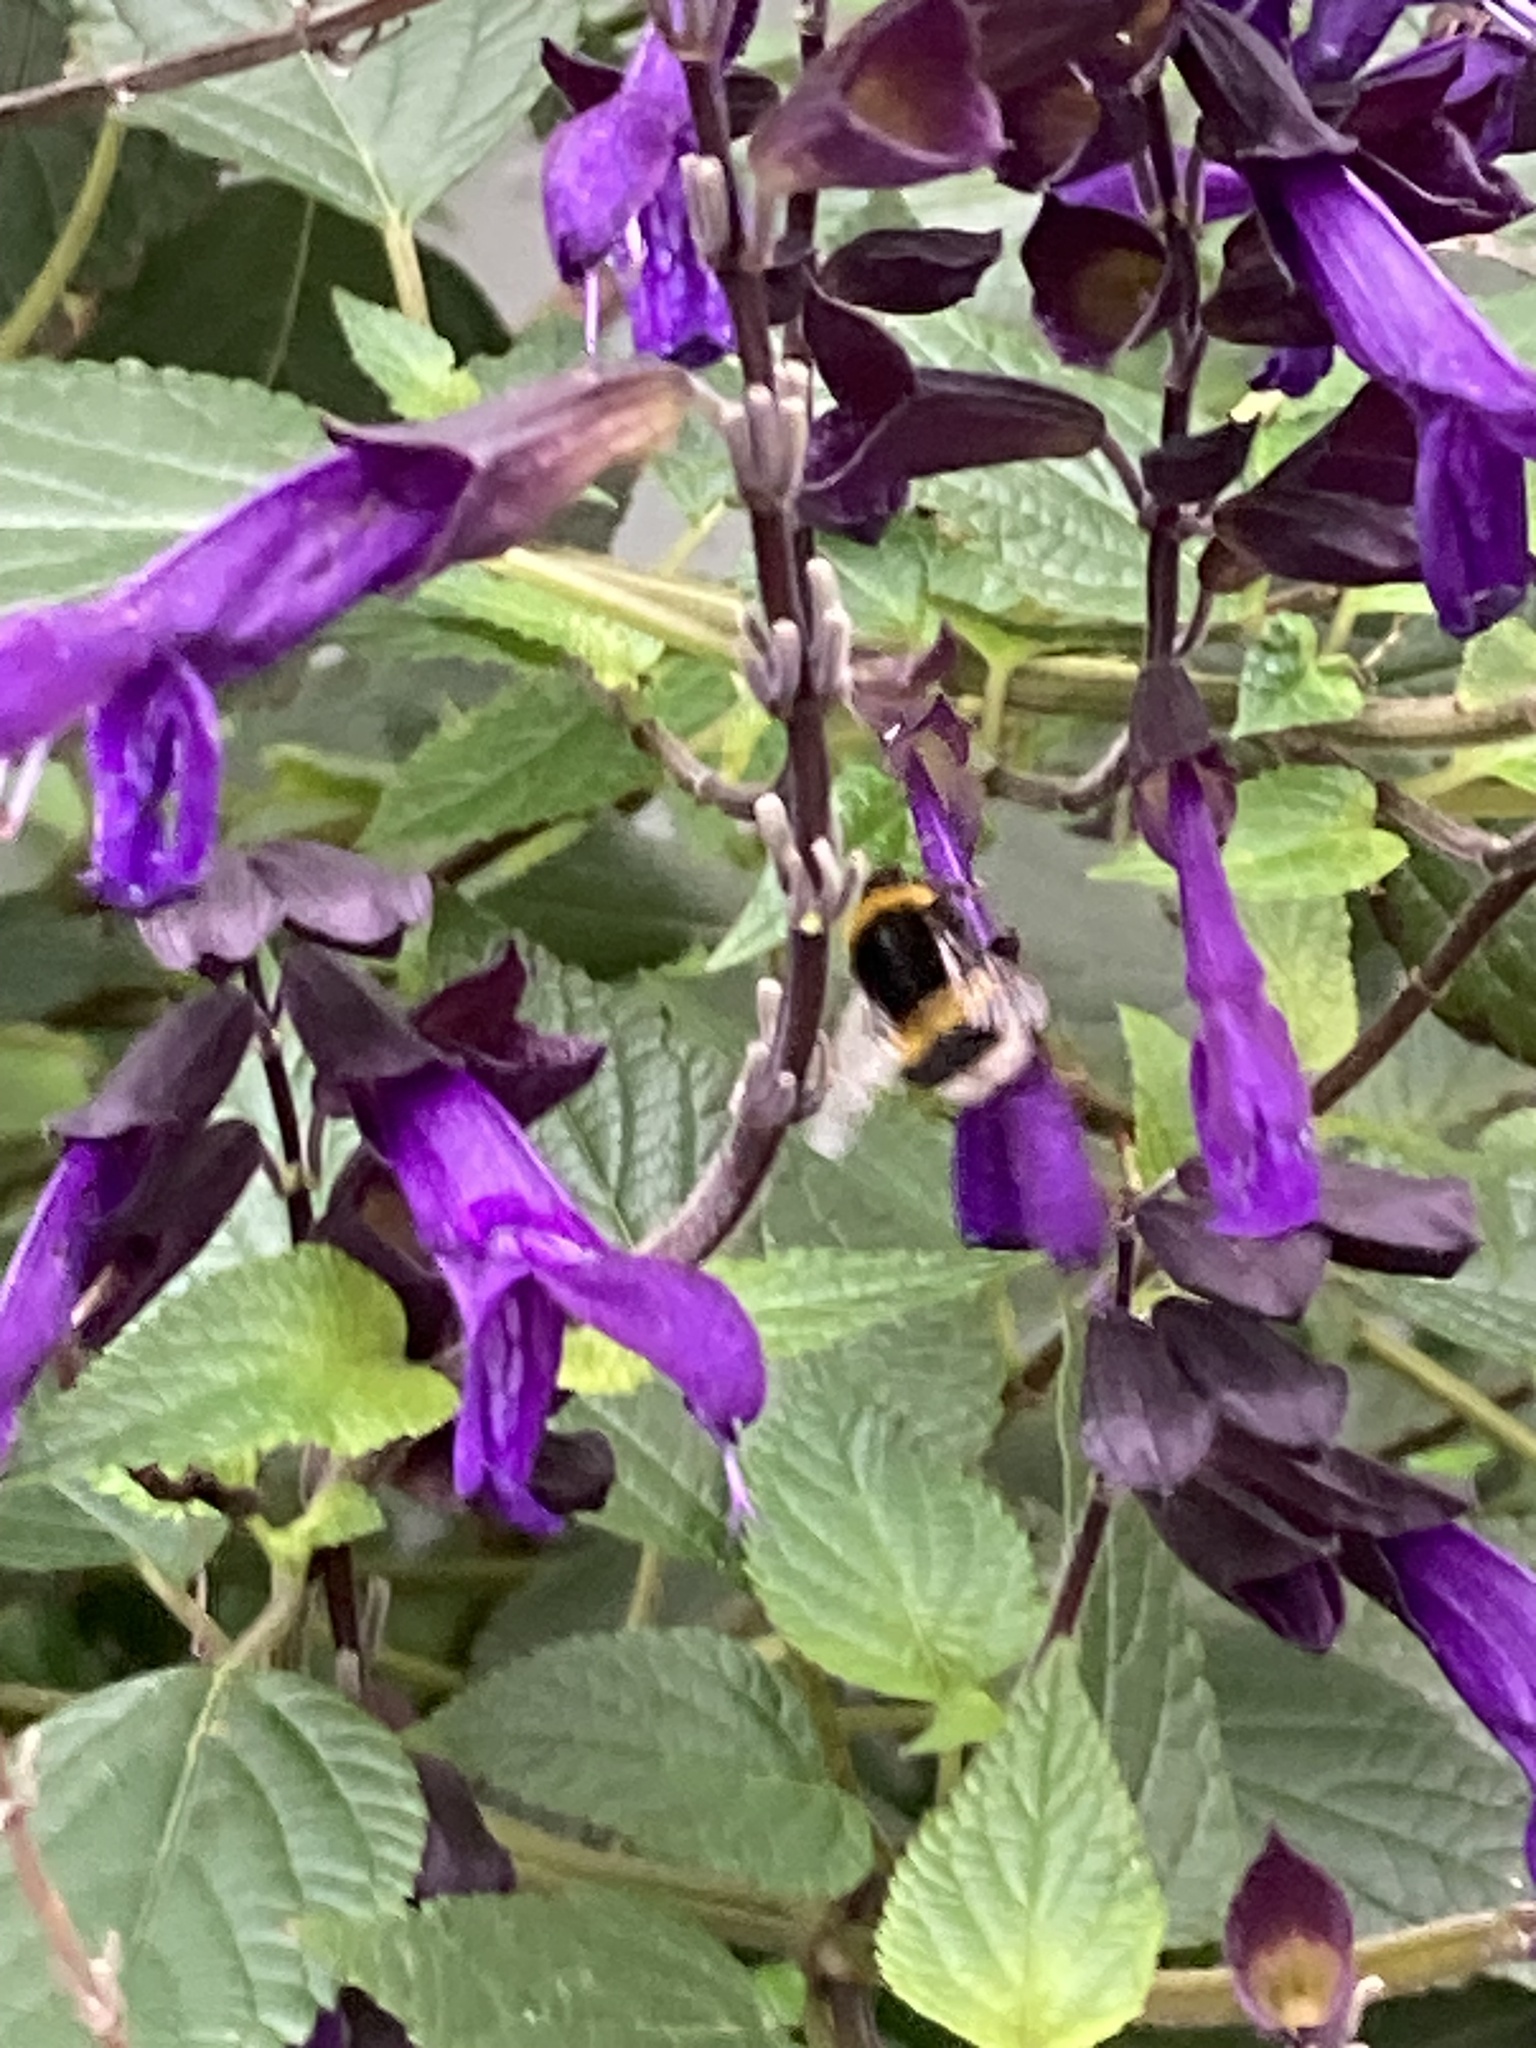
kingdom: Animalia
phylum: Arthropoda
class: Insecta
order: Hymenoptera
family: Apidae
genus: Bombus
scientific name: Bombus terrestris
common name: Buff-tailed bumblebee
